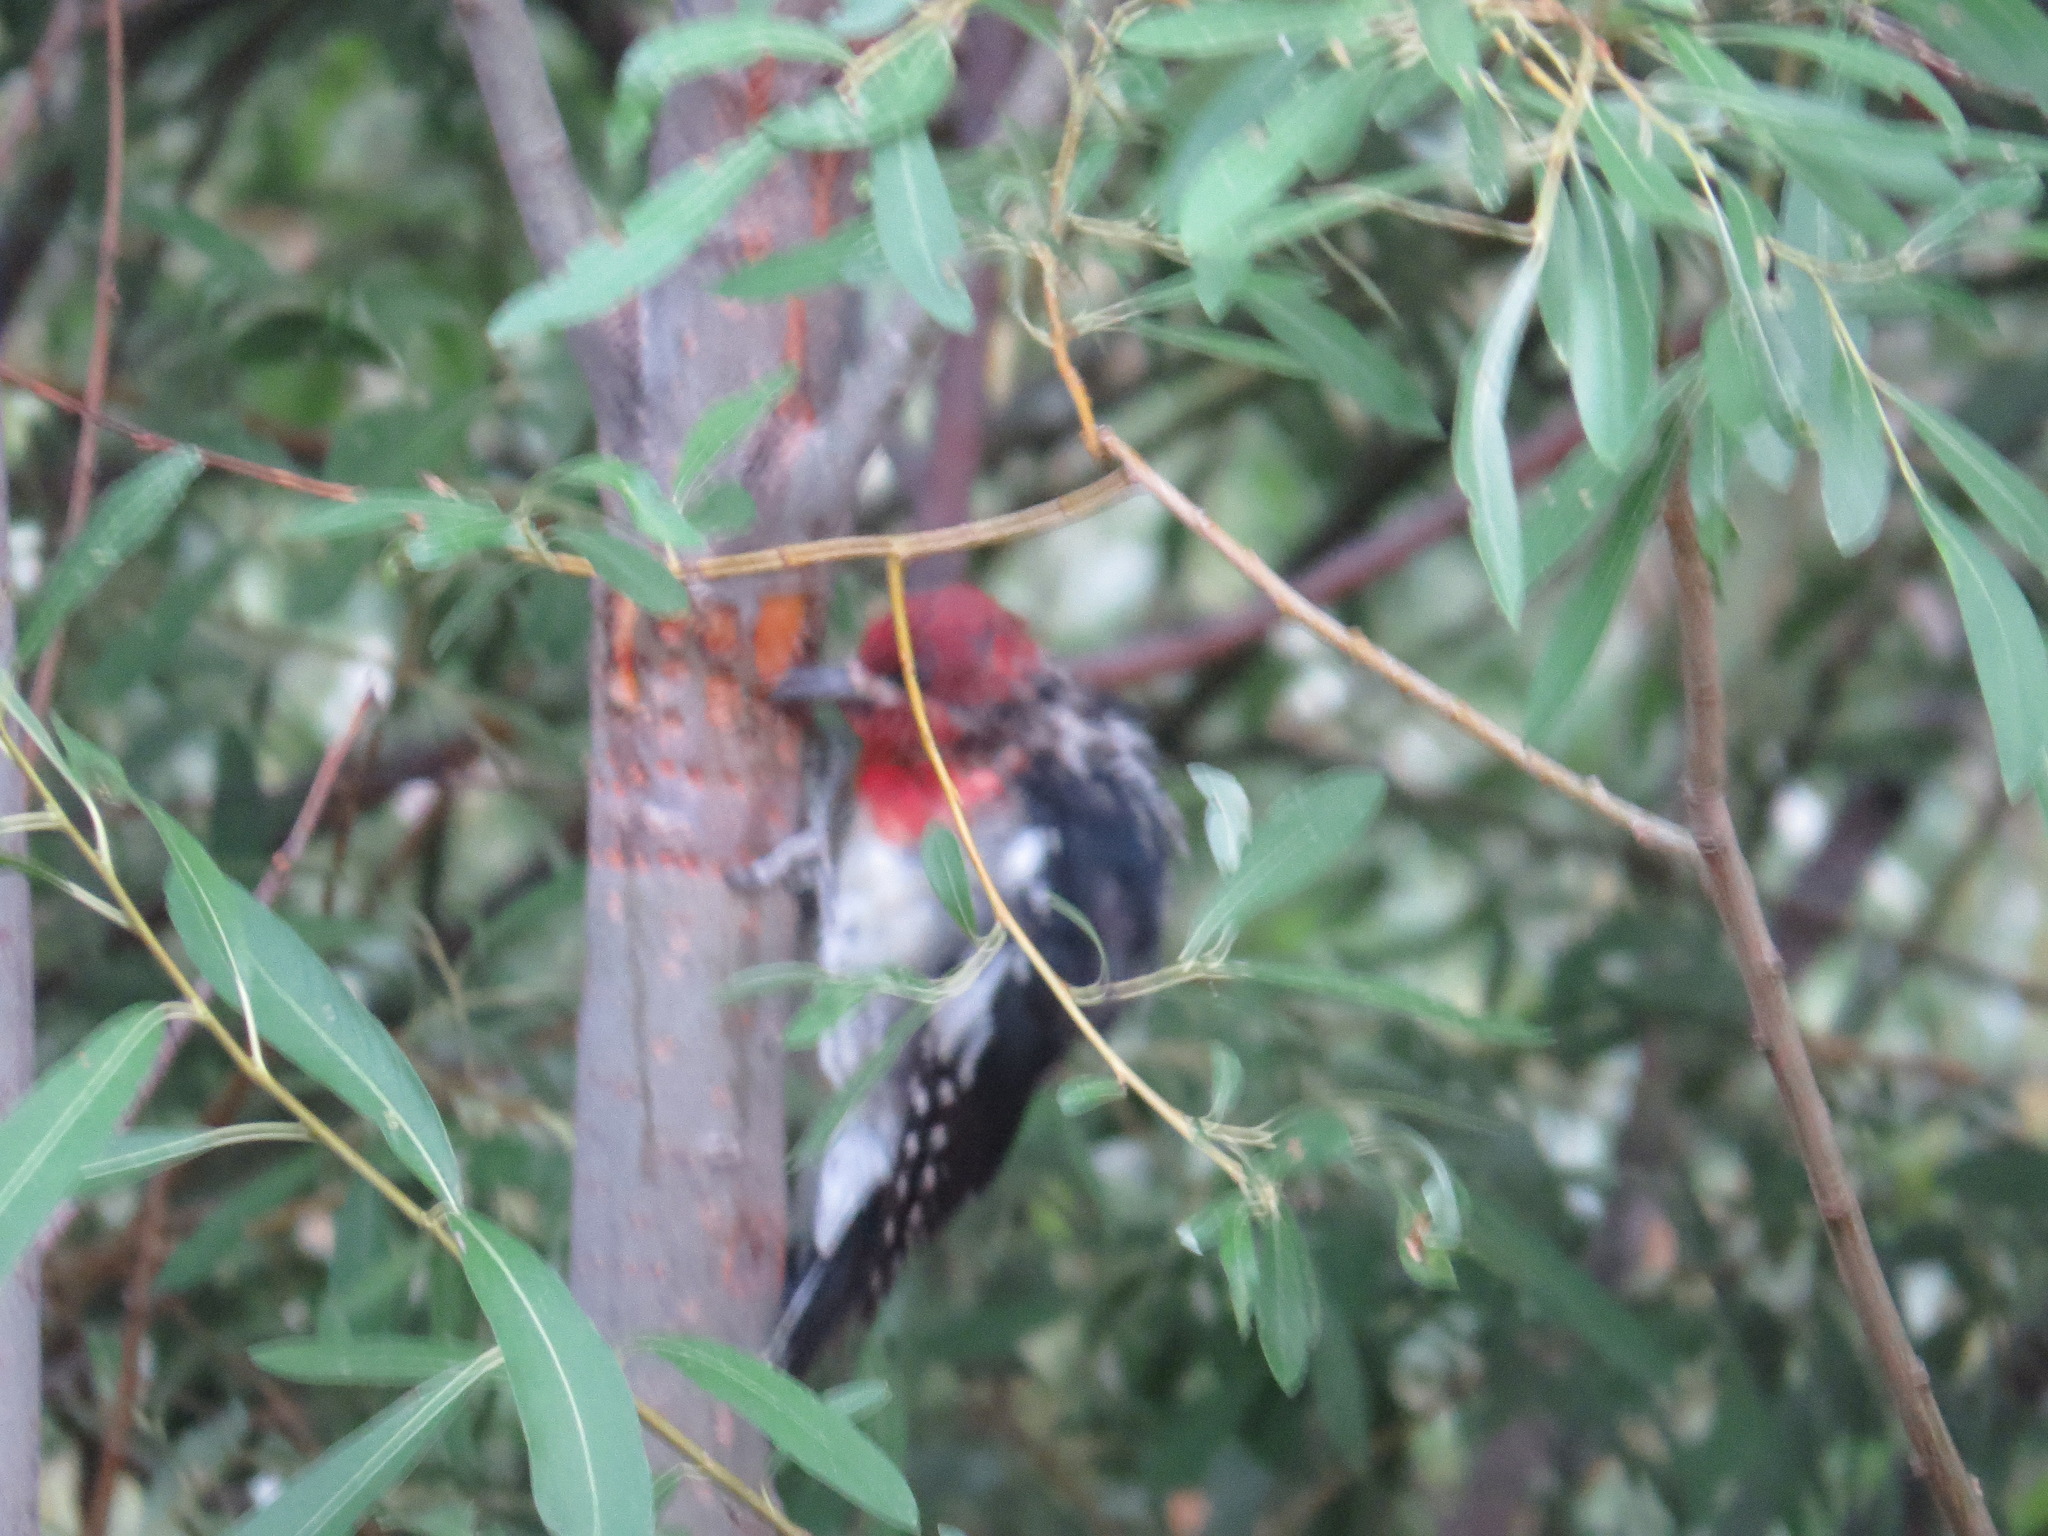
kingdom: Animalia
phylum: Chordata
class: Aves
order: Piciformes
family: Picidae
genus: Sphyrapicus
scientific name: Sphyrapicus ruber
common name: Red-breasted sapsucker
